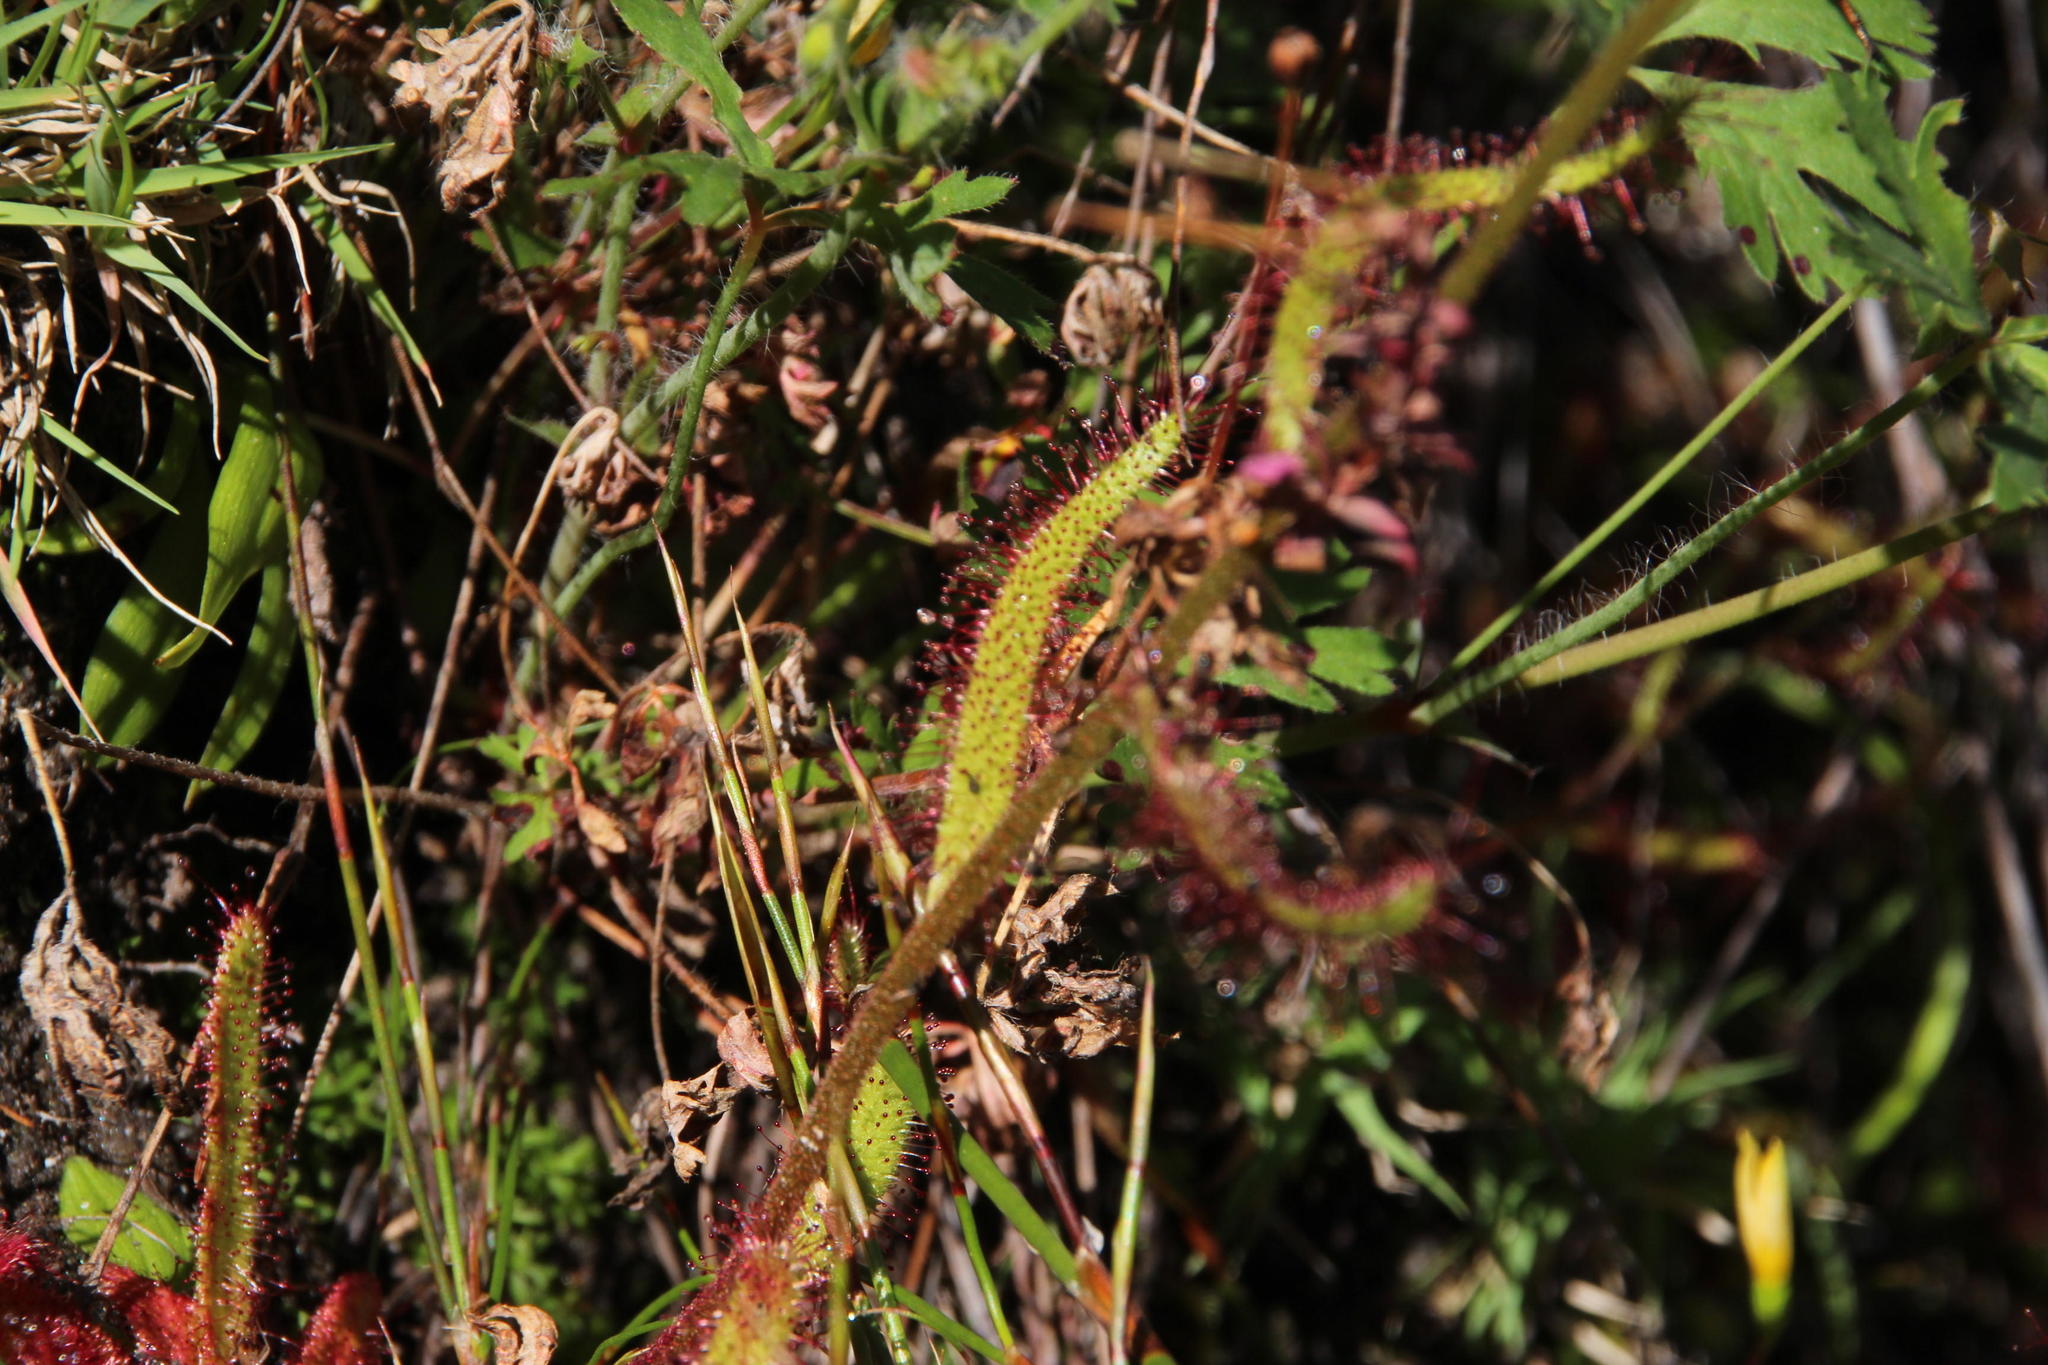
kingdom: Plantae
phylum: Tracheophyta
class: Magnoliopsida
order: Caryophyllales
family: Droseraceae
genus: Drosera
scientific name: Drosera cistiflora
